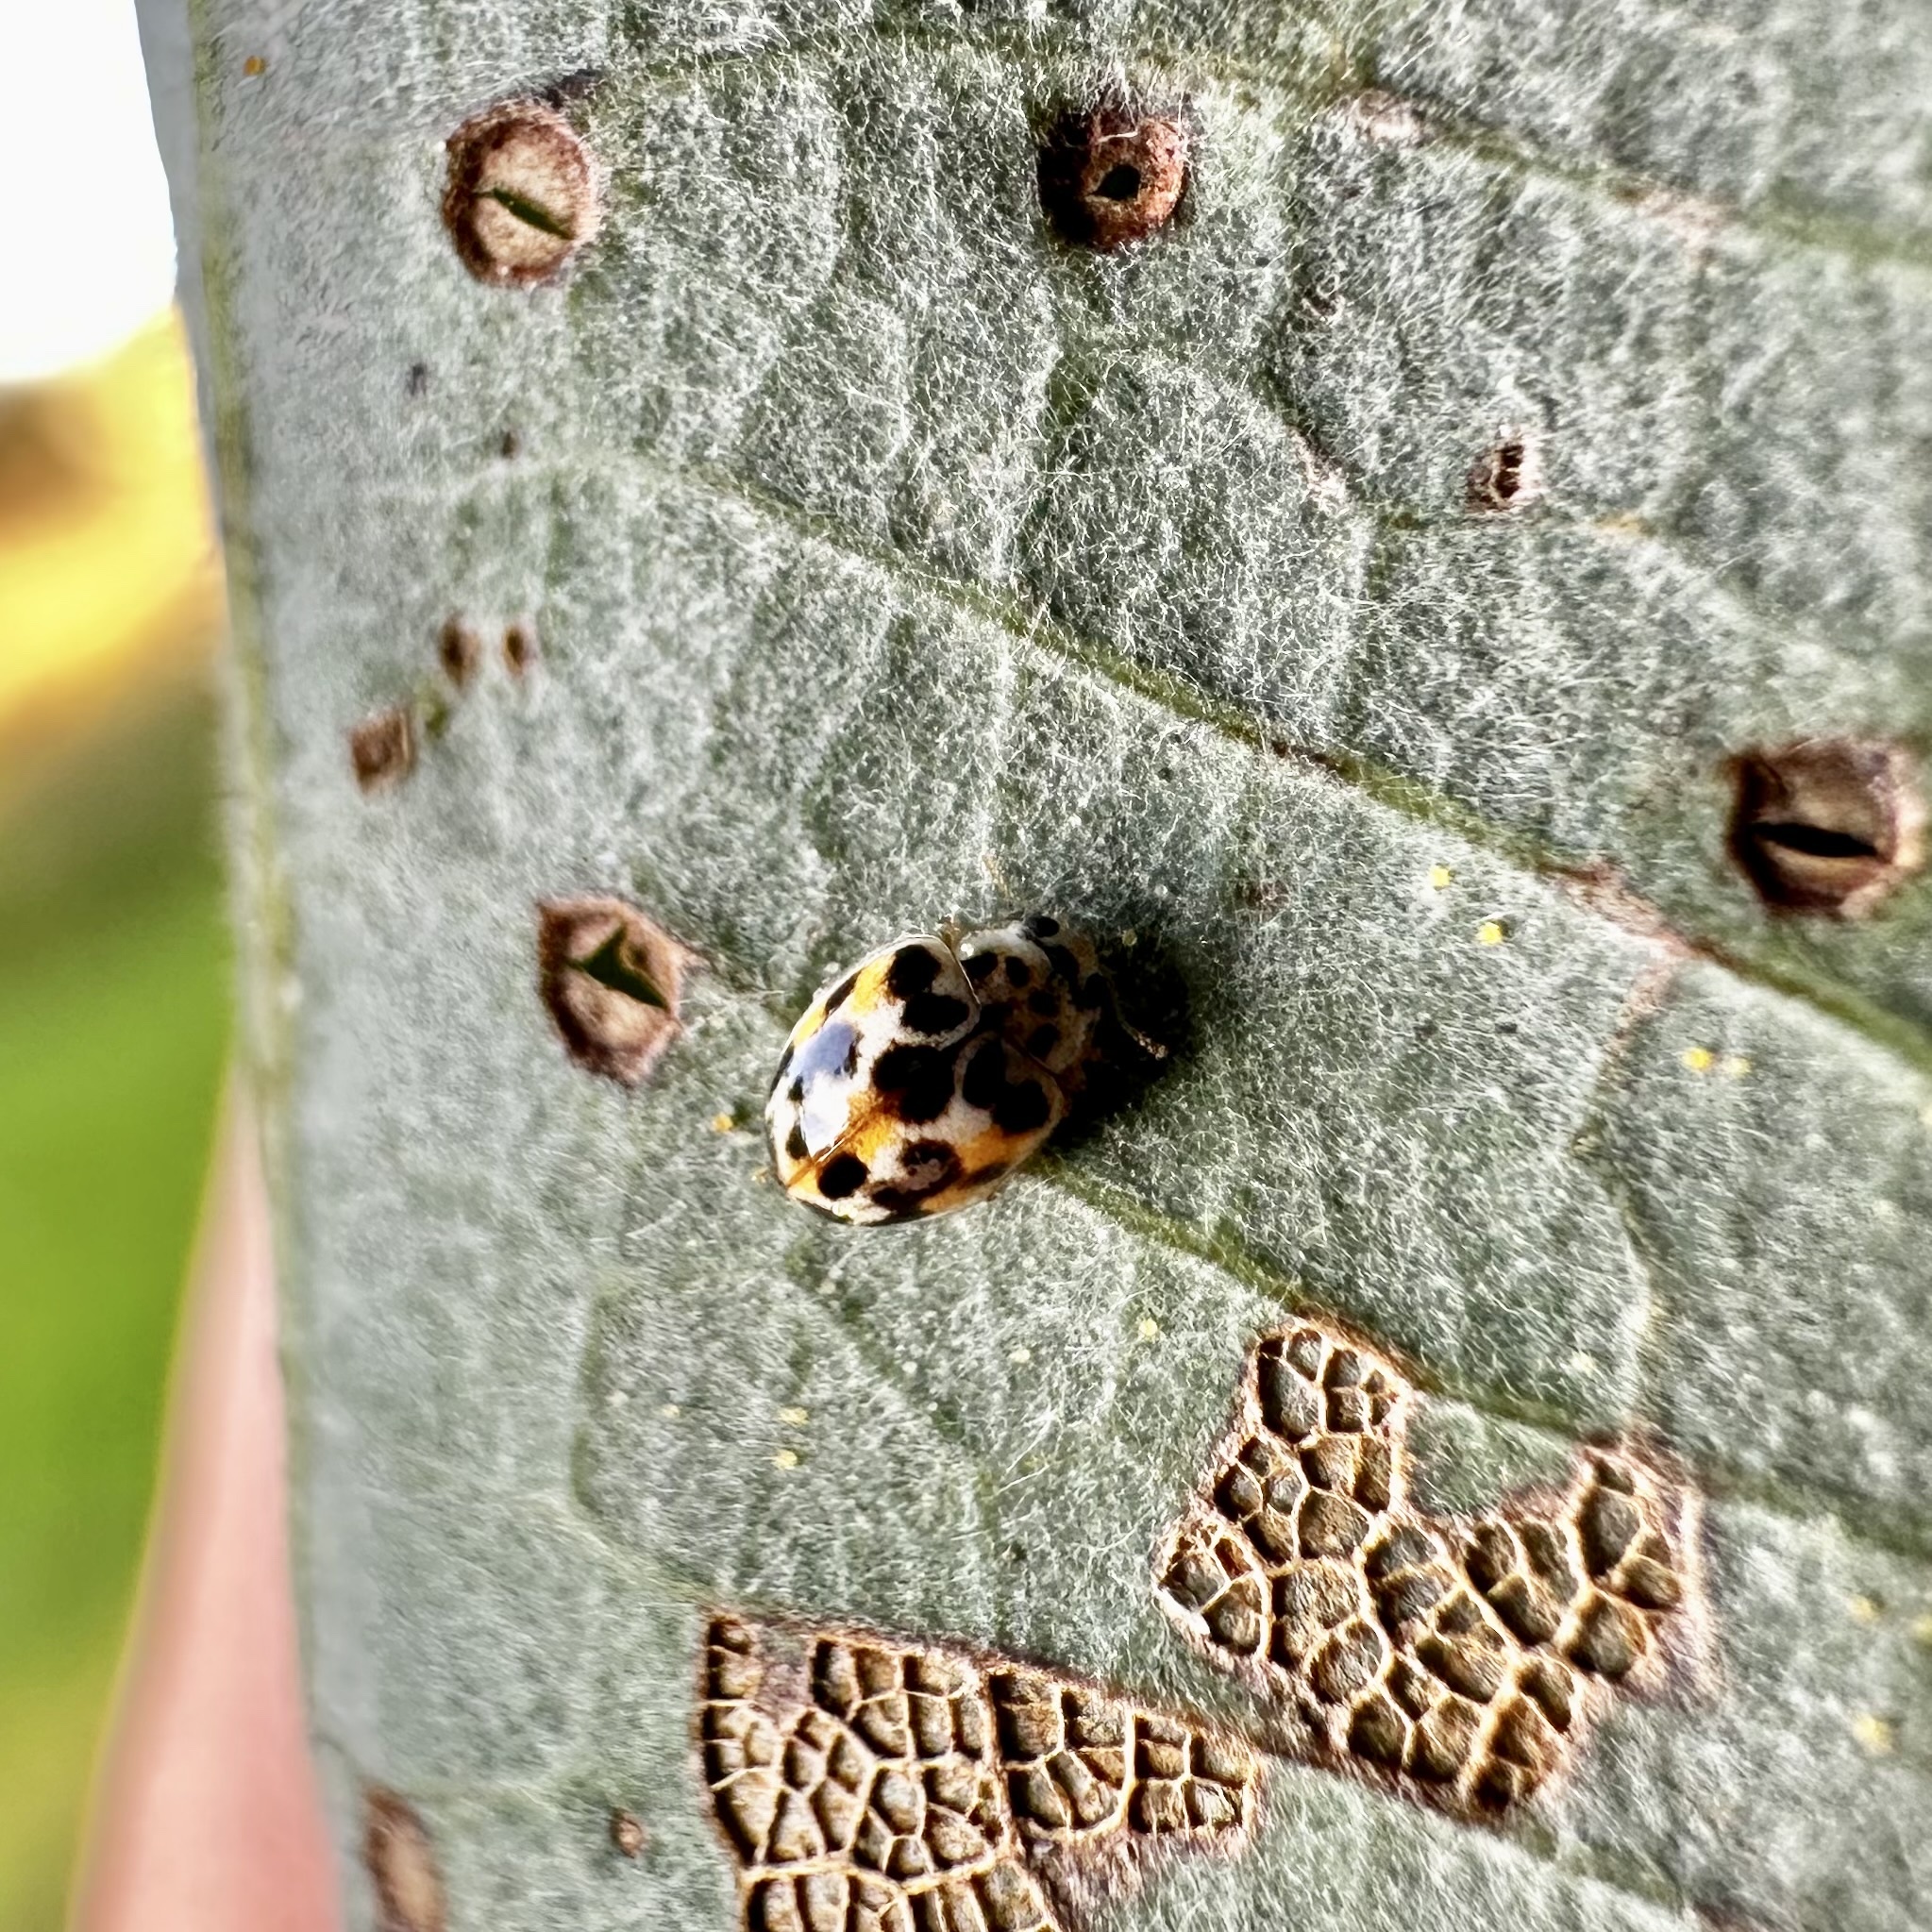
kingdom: Animalia
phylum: Arthropoda
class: Insecta
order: Coleoptera
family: Coccinellidae
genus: Psyllobora
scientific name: Psyllobora vigintimaculata
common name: Ladybird beetle
